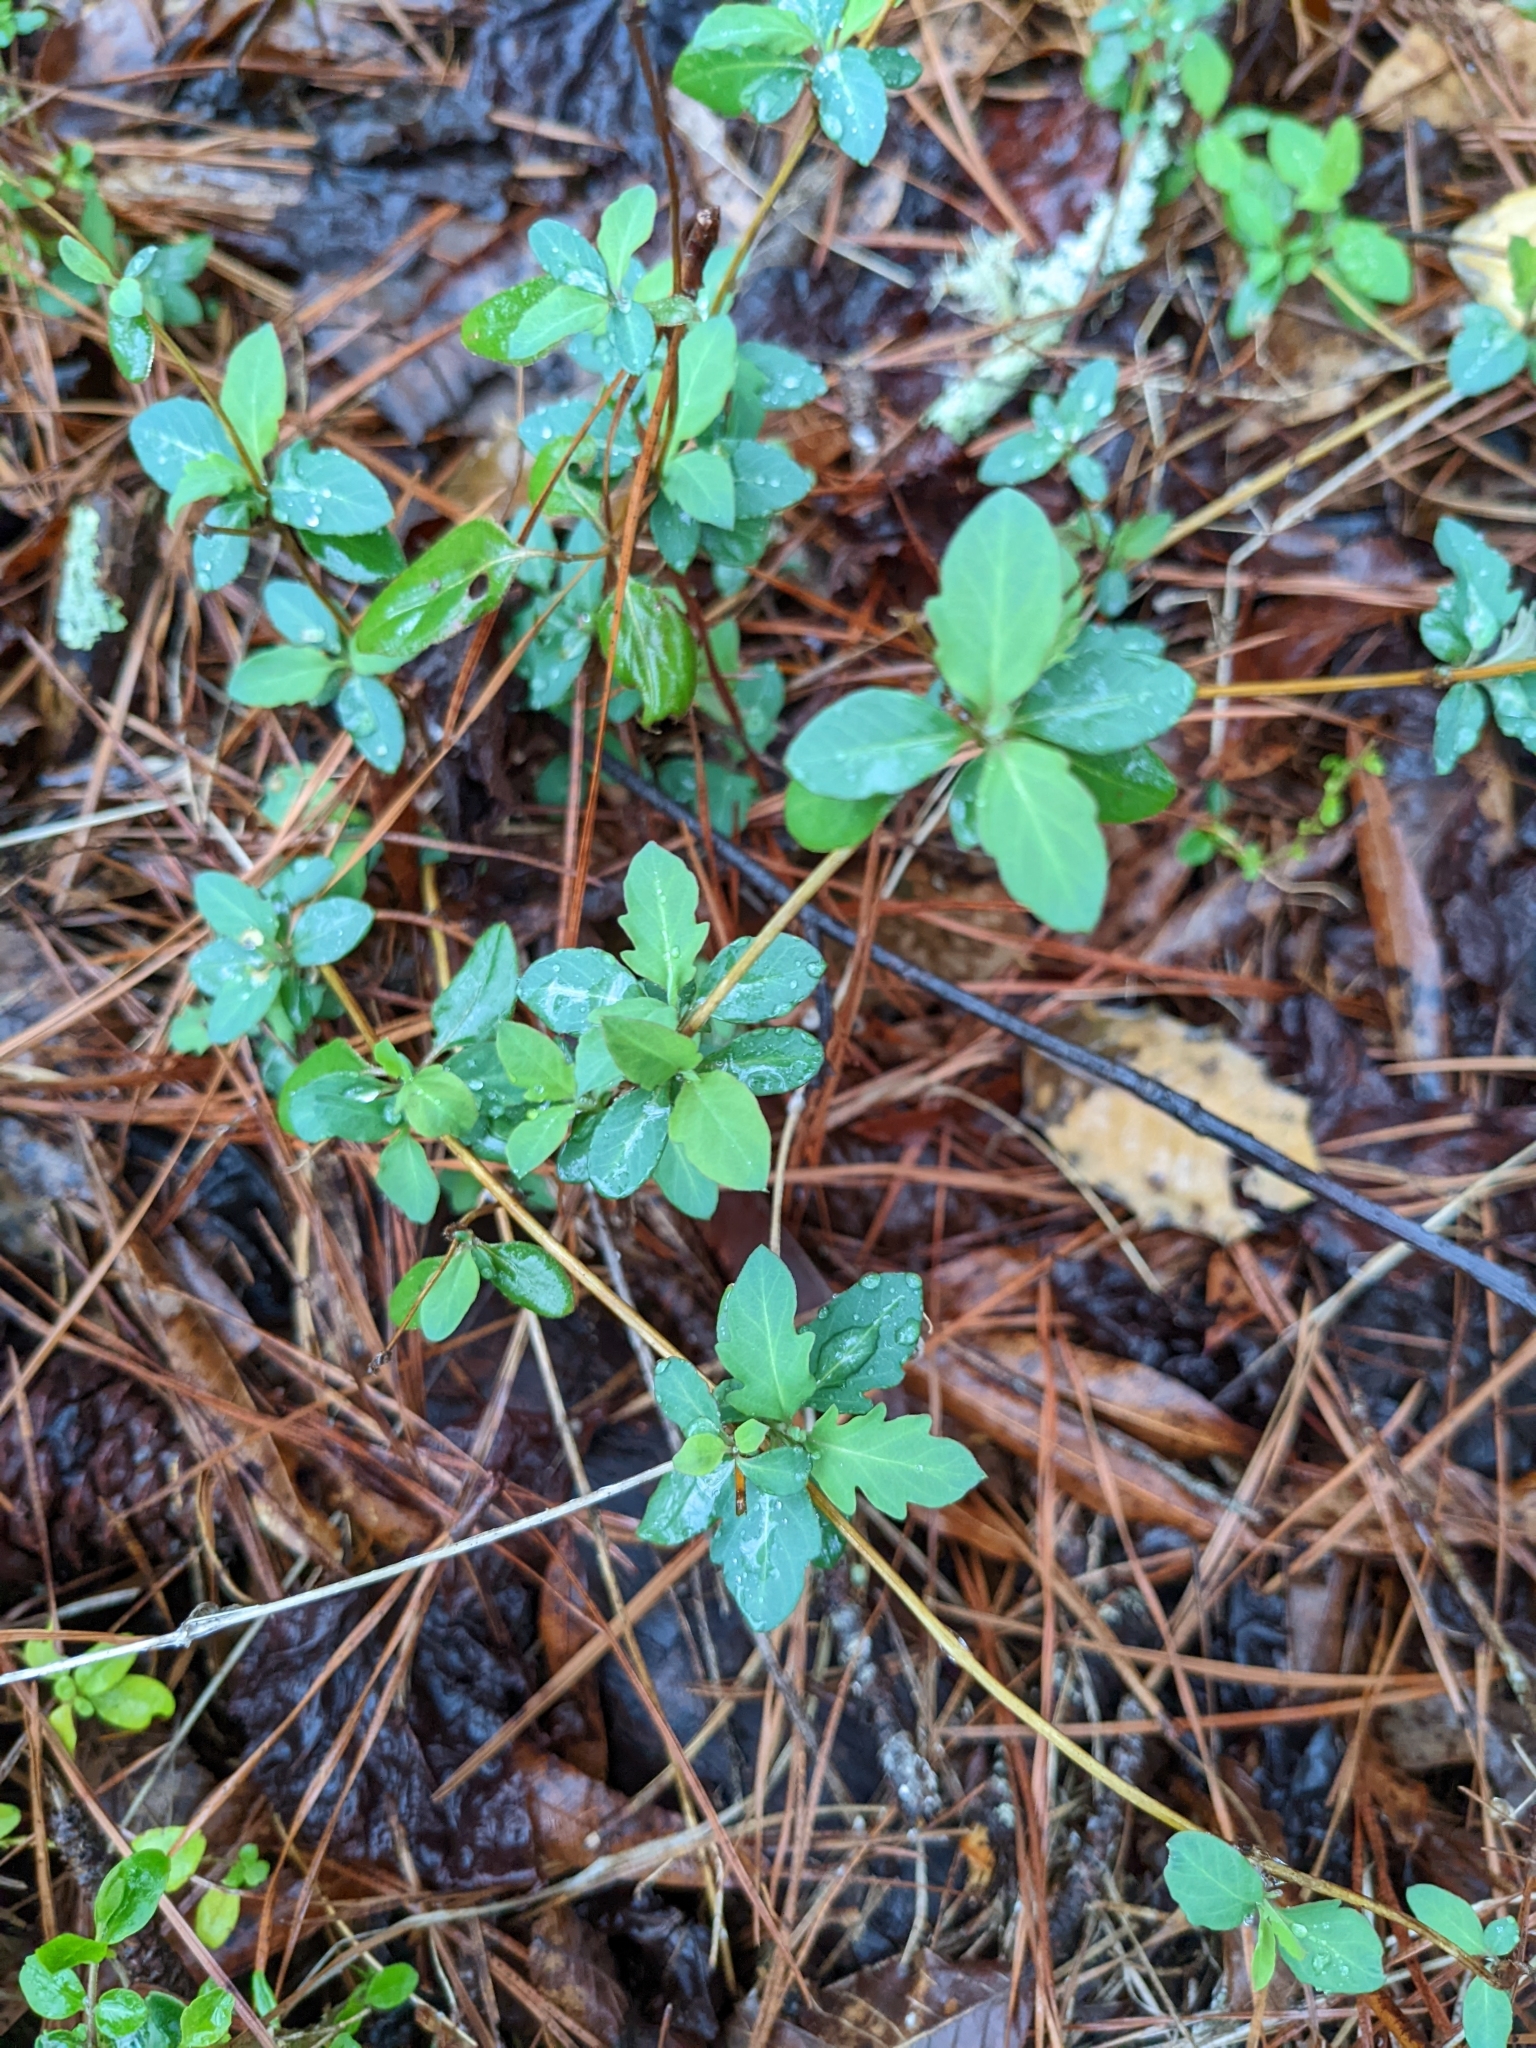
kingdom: Plantae
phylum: Tracheophyta
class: Magnoliopsida
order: Dipsacales
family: Caprifoliaceae
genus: Lonicera
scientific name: Lonicera japonica
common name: Japanese honeysuckle
